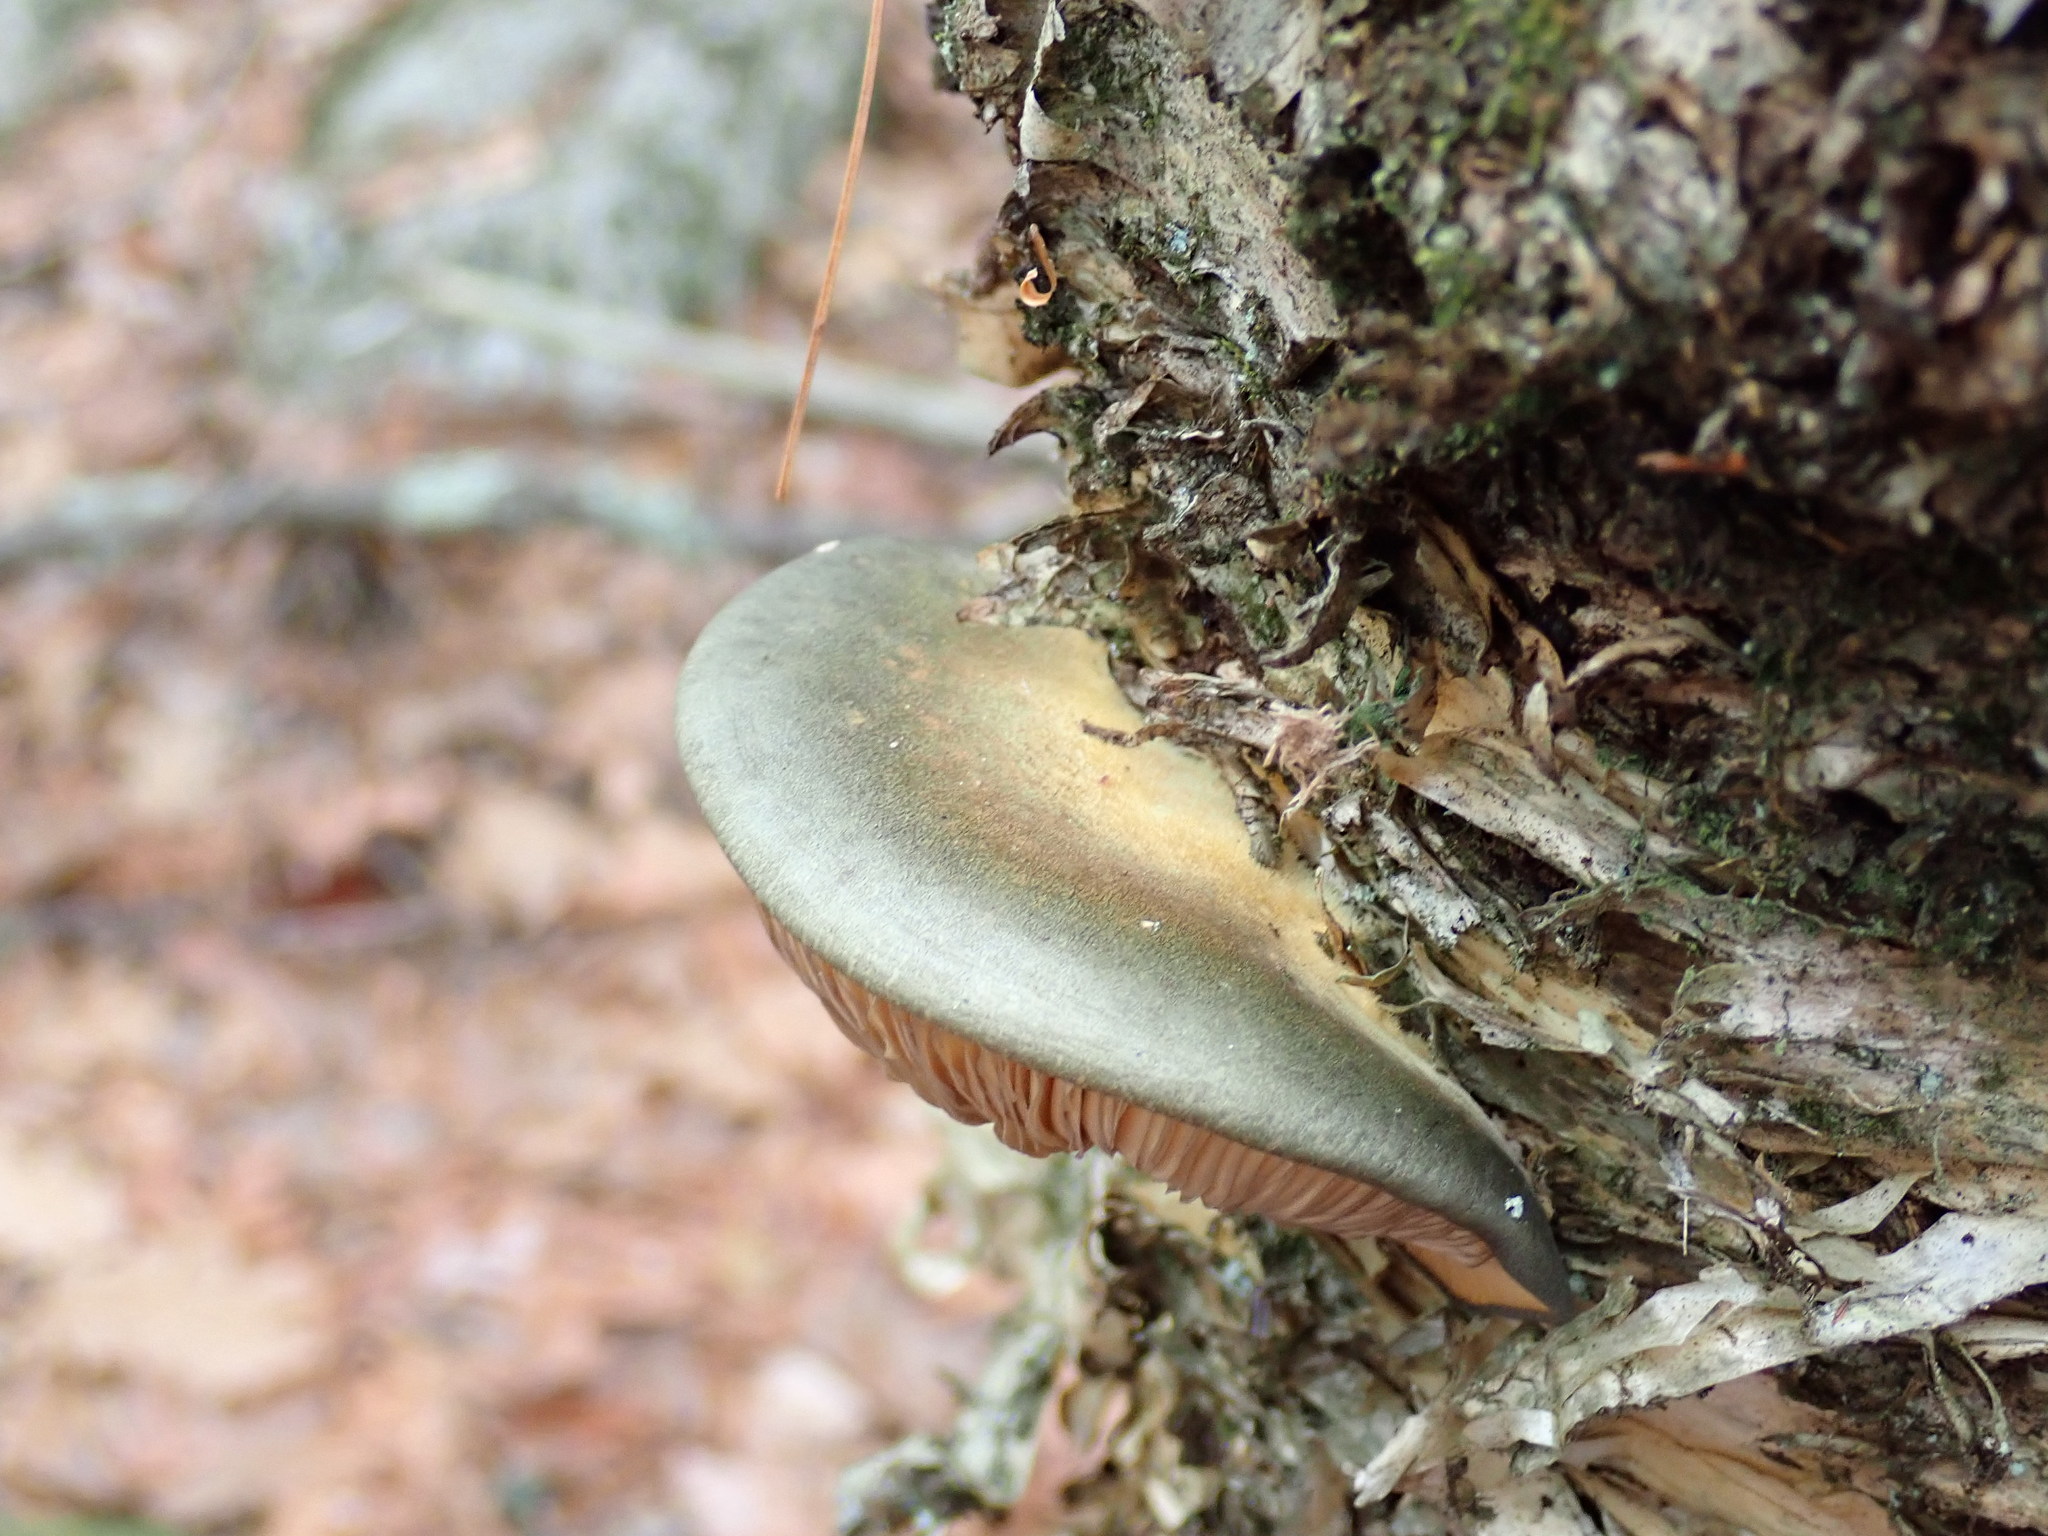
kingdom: Fungi
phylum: Basidiomycota
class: Agaricomycetes
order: Agaricales
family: Sarcomyxaceae
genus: Sarcomyxa
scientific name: Sarcomyxa serotina
